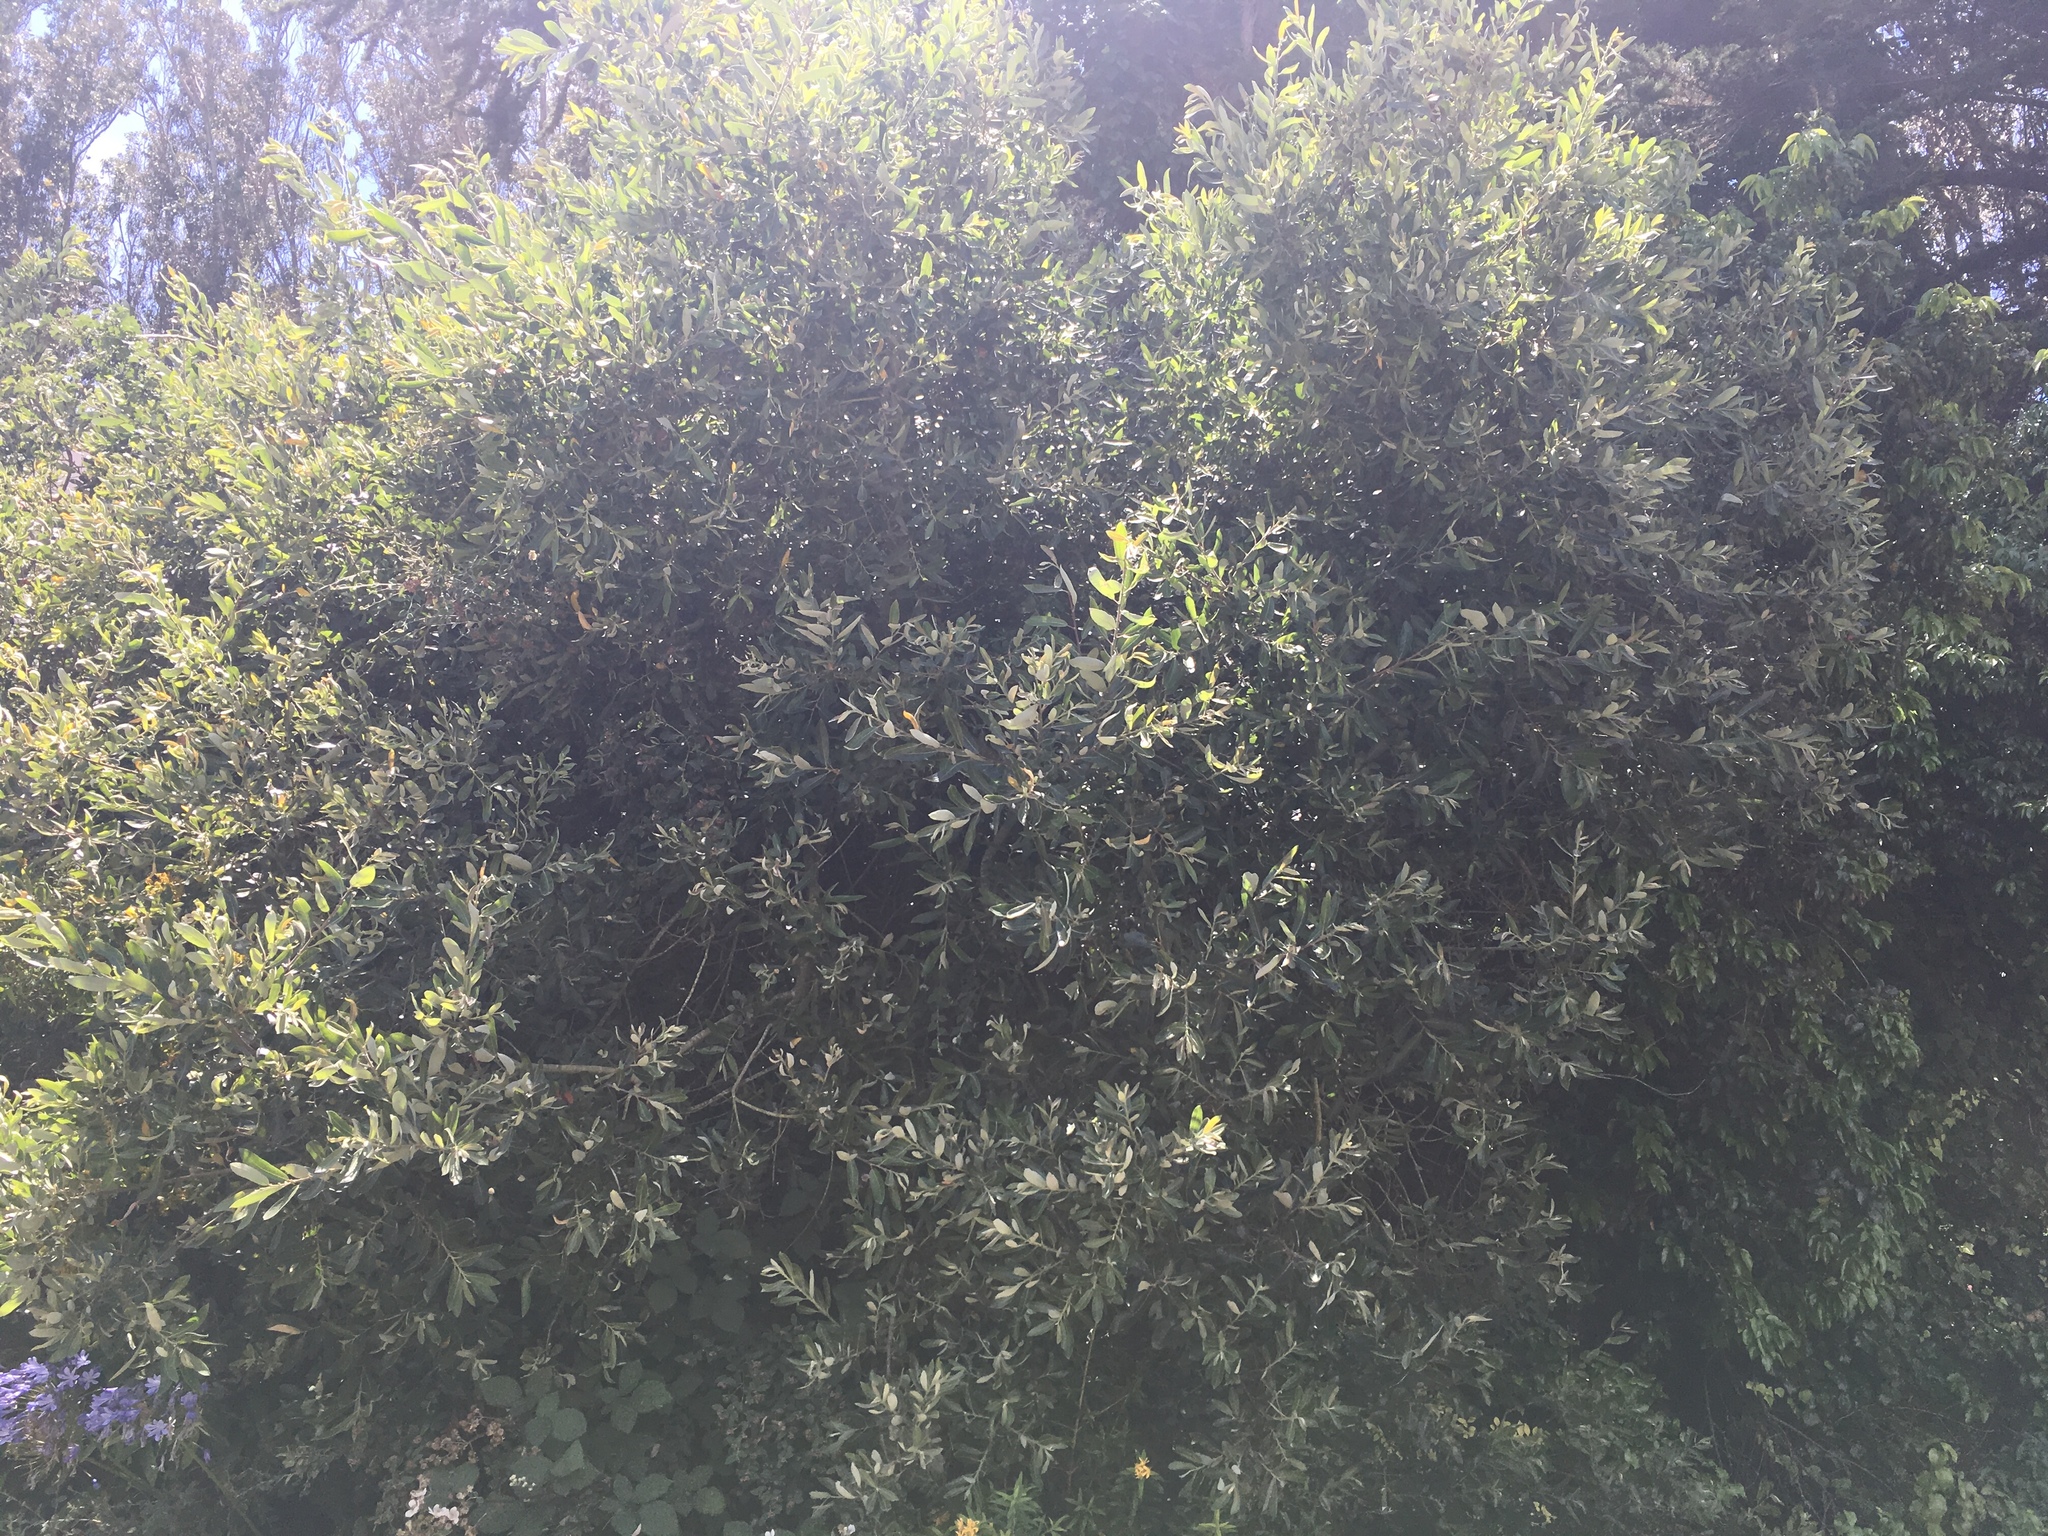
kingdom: Plantae
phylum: Tracheophyta
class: Magnoliopsida
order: Malpighiales
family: Salicaceae
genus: Salix
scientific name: Salix lasiolepis
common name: Arroyo willow
